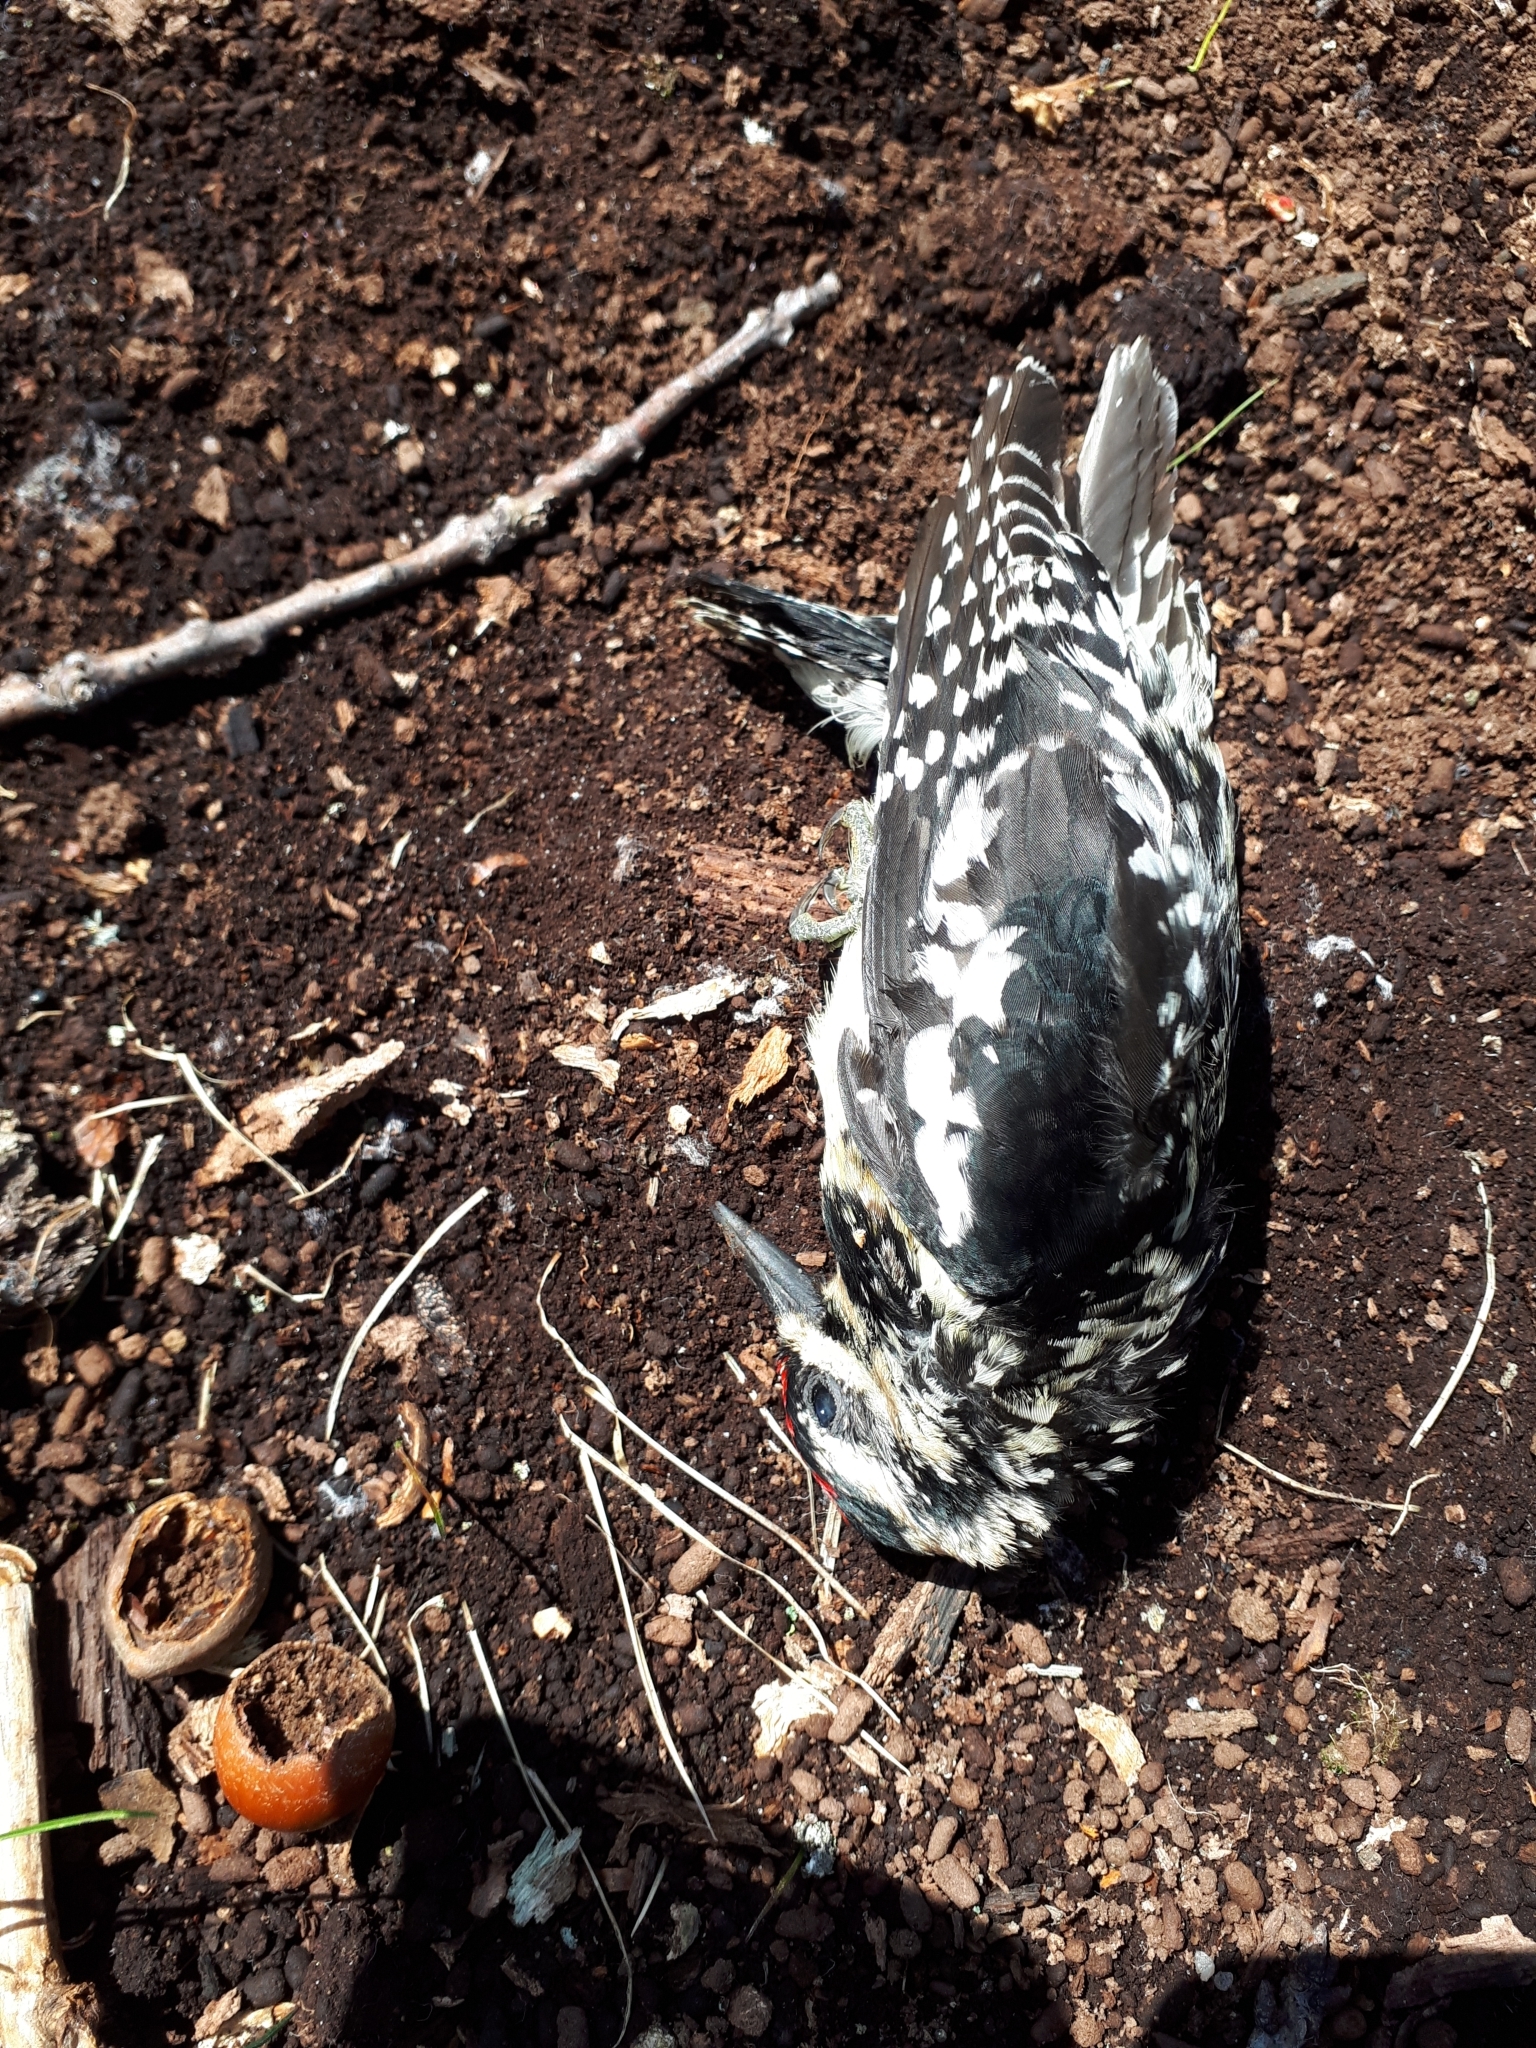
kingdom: Animalia
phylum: Chordata
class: Aves
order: Piciformes
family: Picidae
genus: Sphyrapicus
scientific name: Sphyrapicus varius
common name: Yellow-bellied sapsucker
